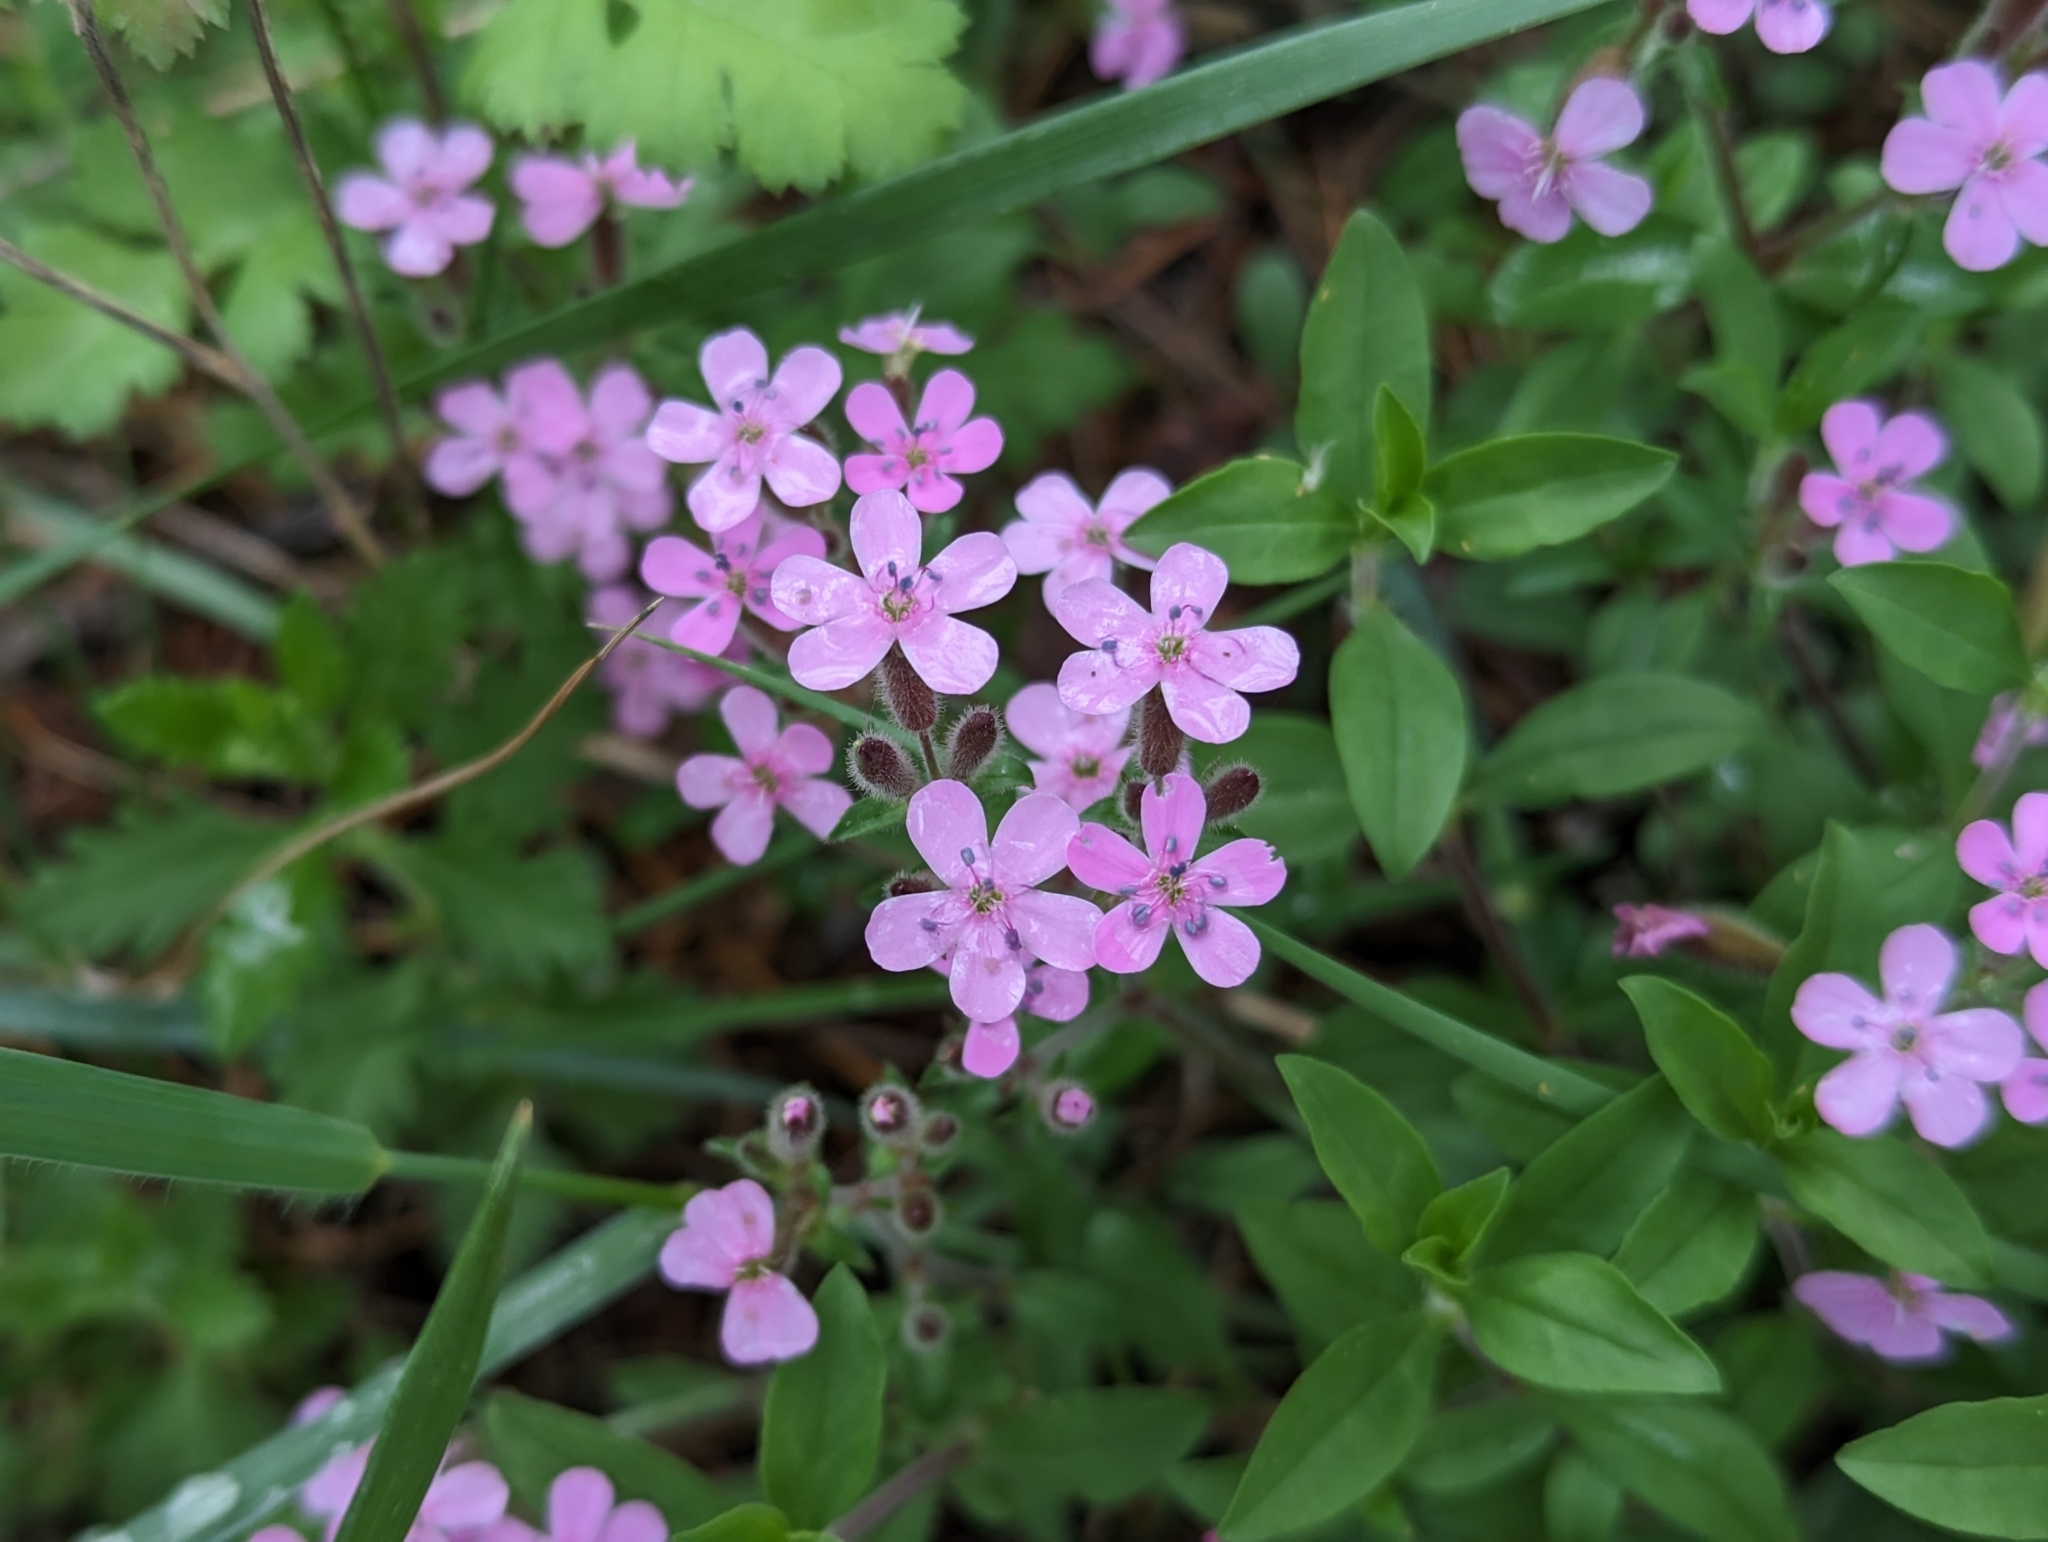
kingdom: Plantae
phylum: Tracheophyta
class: Magnoliopsida
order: Caryophyllales
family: Caryophyllaceae
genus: Saponaria
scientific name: Saponaria ocymoides
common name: Rock soapwort
